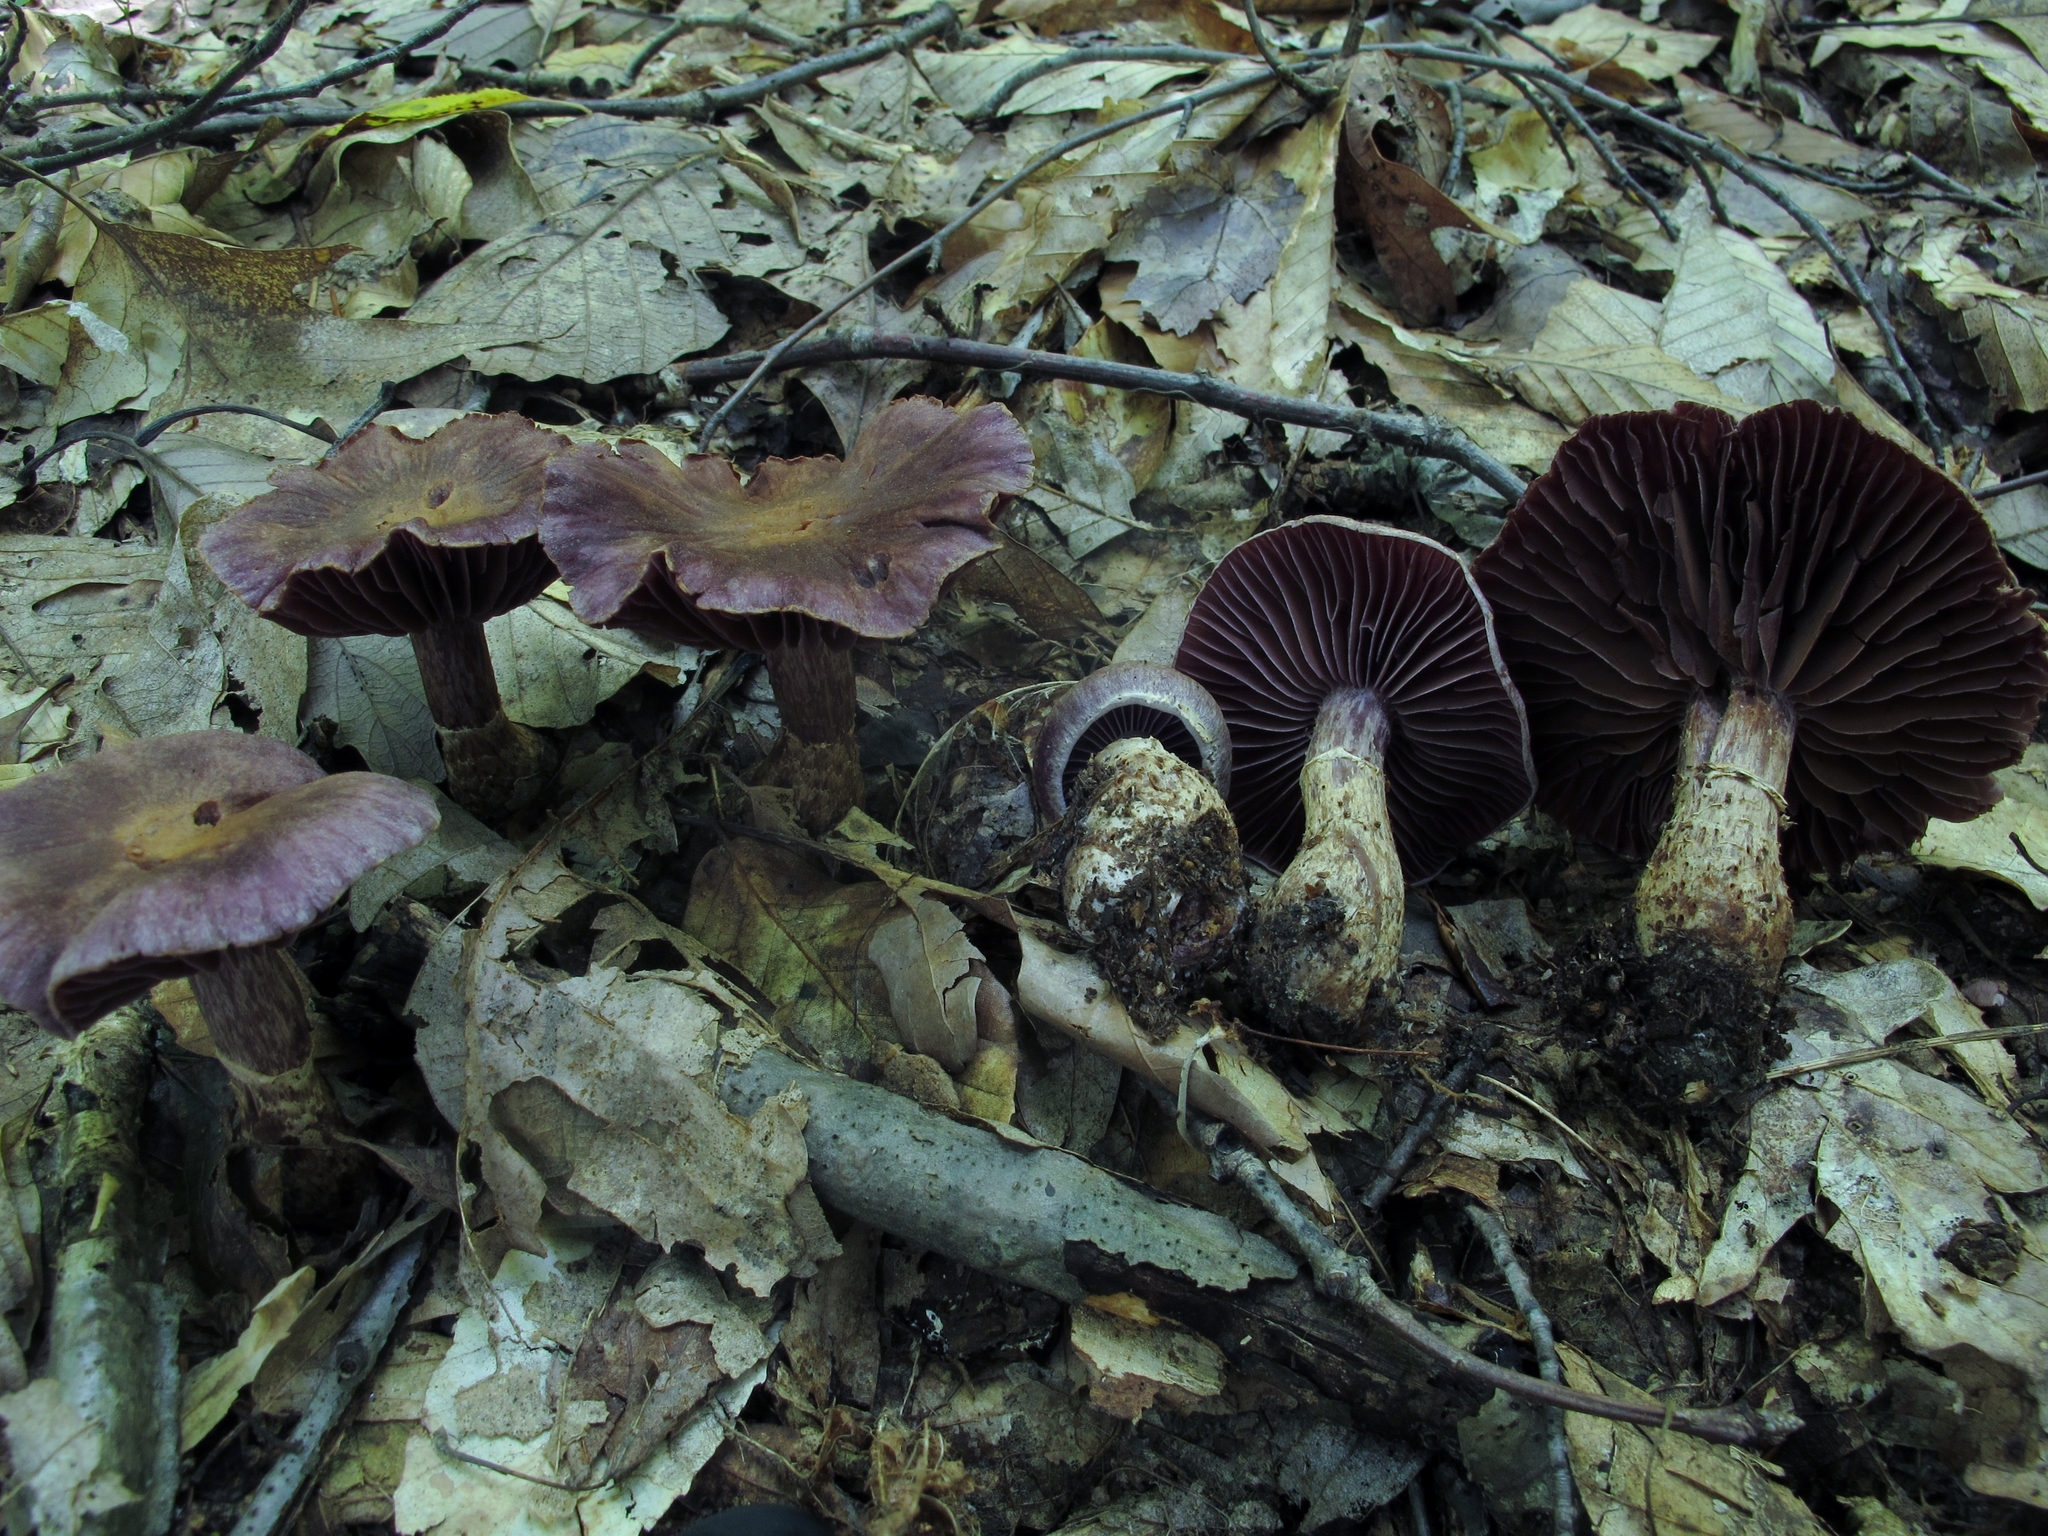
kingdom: Fungi
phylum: Basidiomycota
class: Agaricomycetes
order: Agaricales
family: Cortinariaceae
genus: Cortinarius
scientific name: Cortinarius torvus
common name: Stocking webcap
